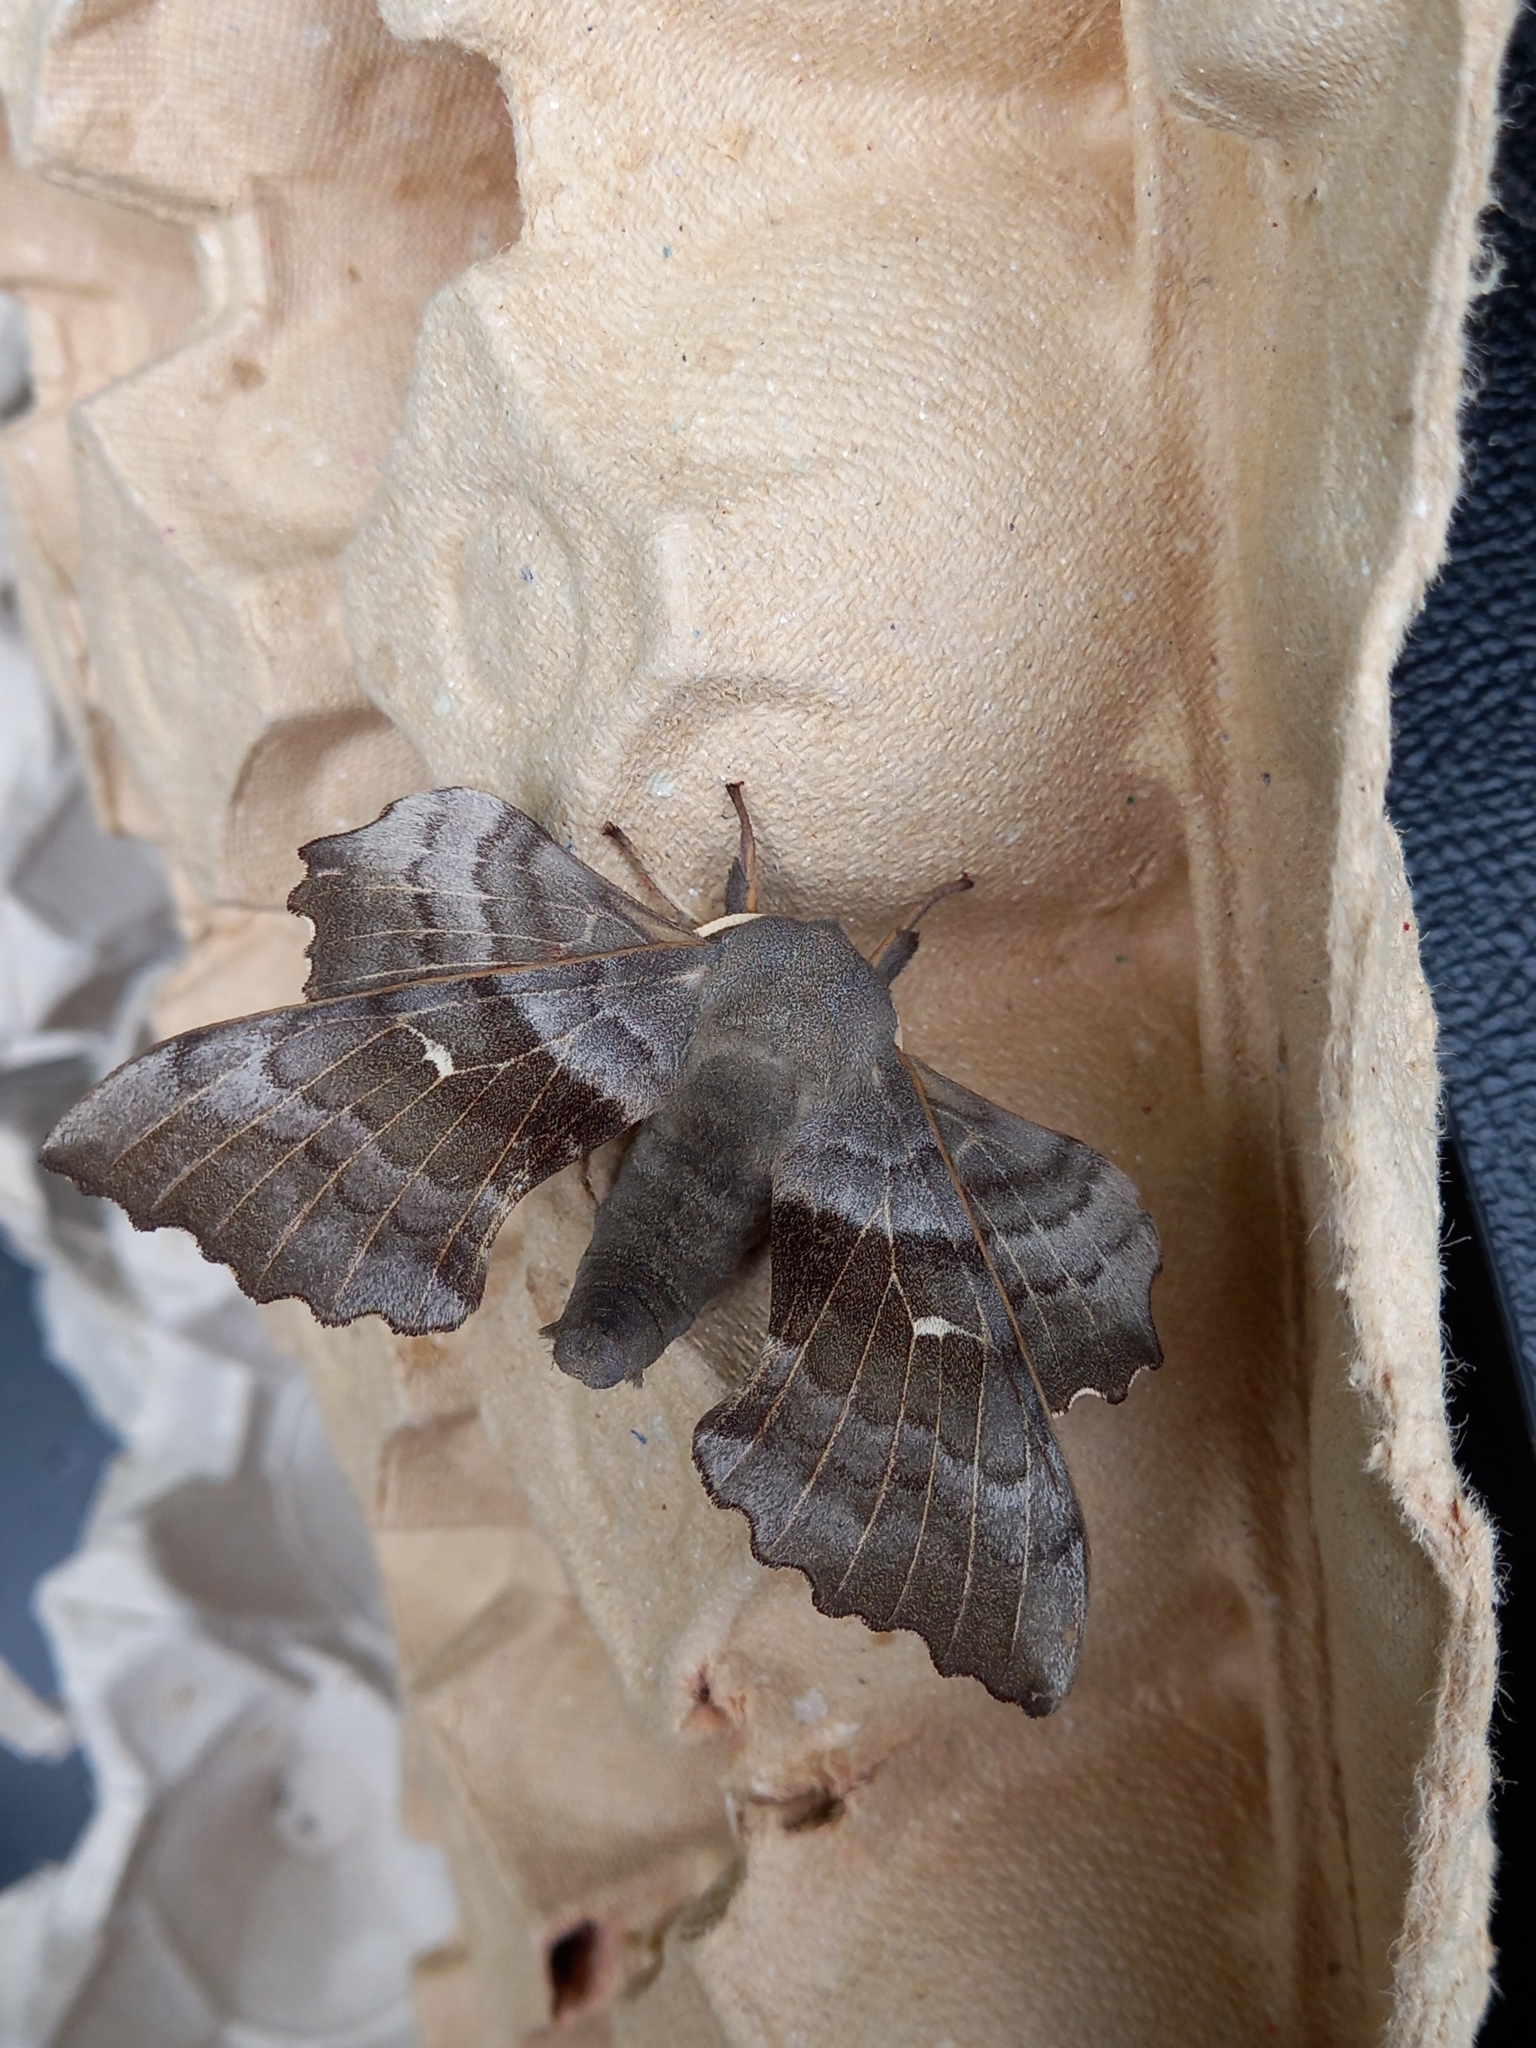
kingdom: Animalia
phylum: Arthropoda
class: Insecta
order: Lepidoptera
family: Sphingidae
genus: Laothoe
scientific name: Laothoe populi
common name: Poplar hawk-moth
